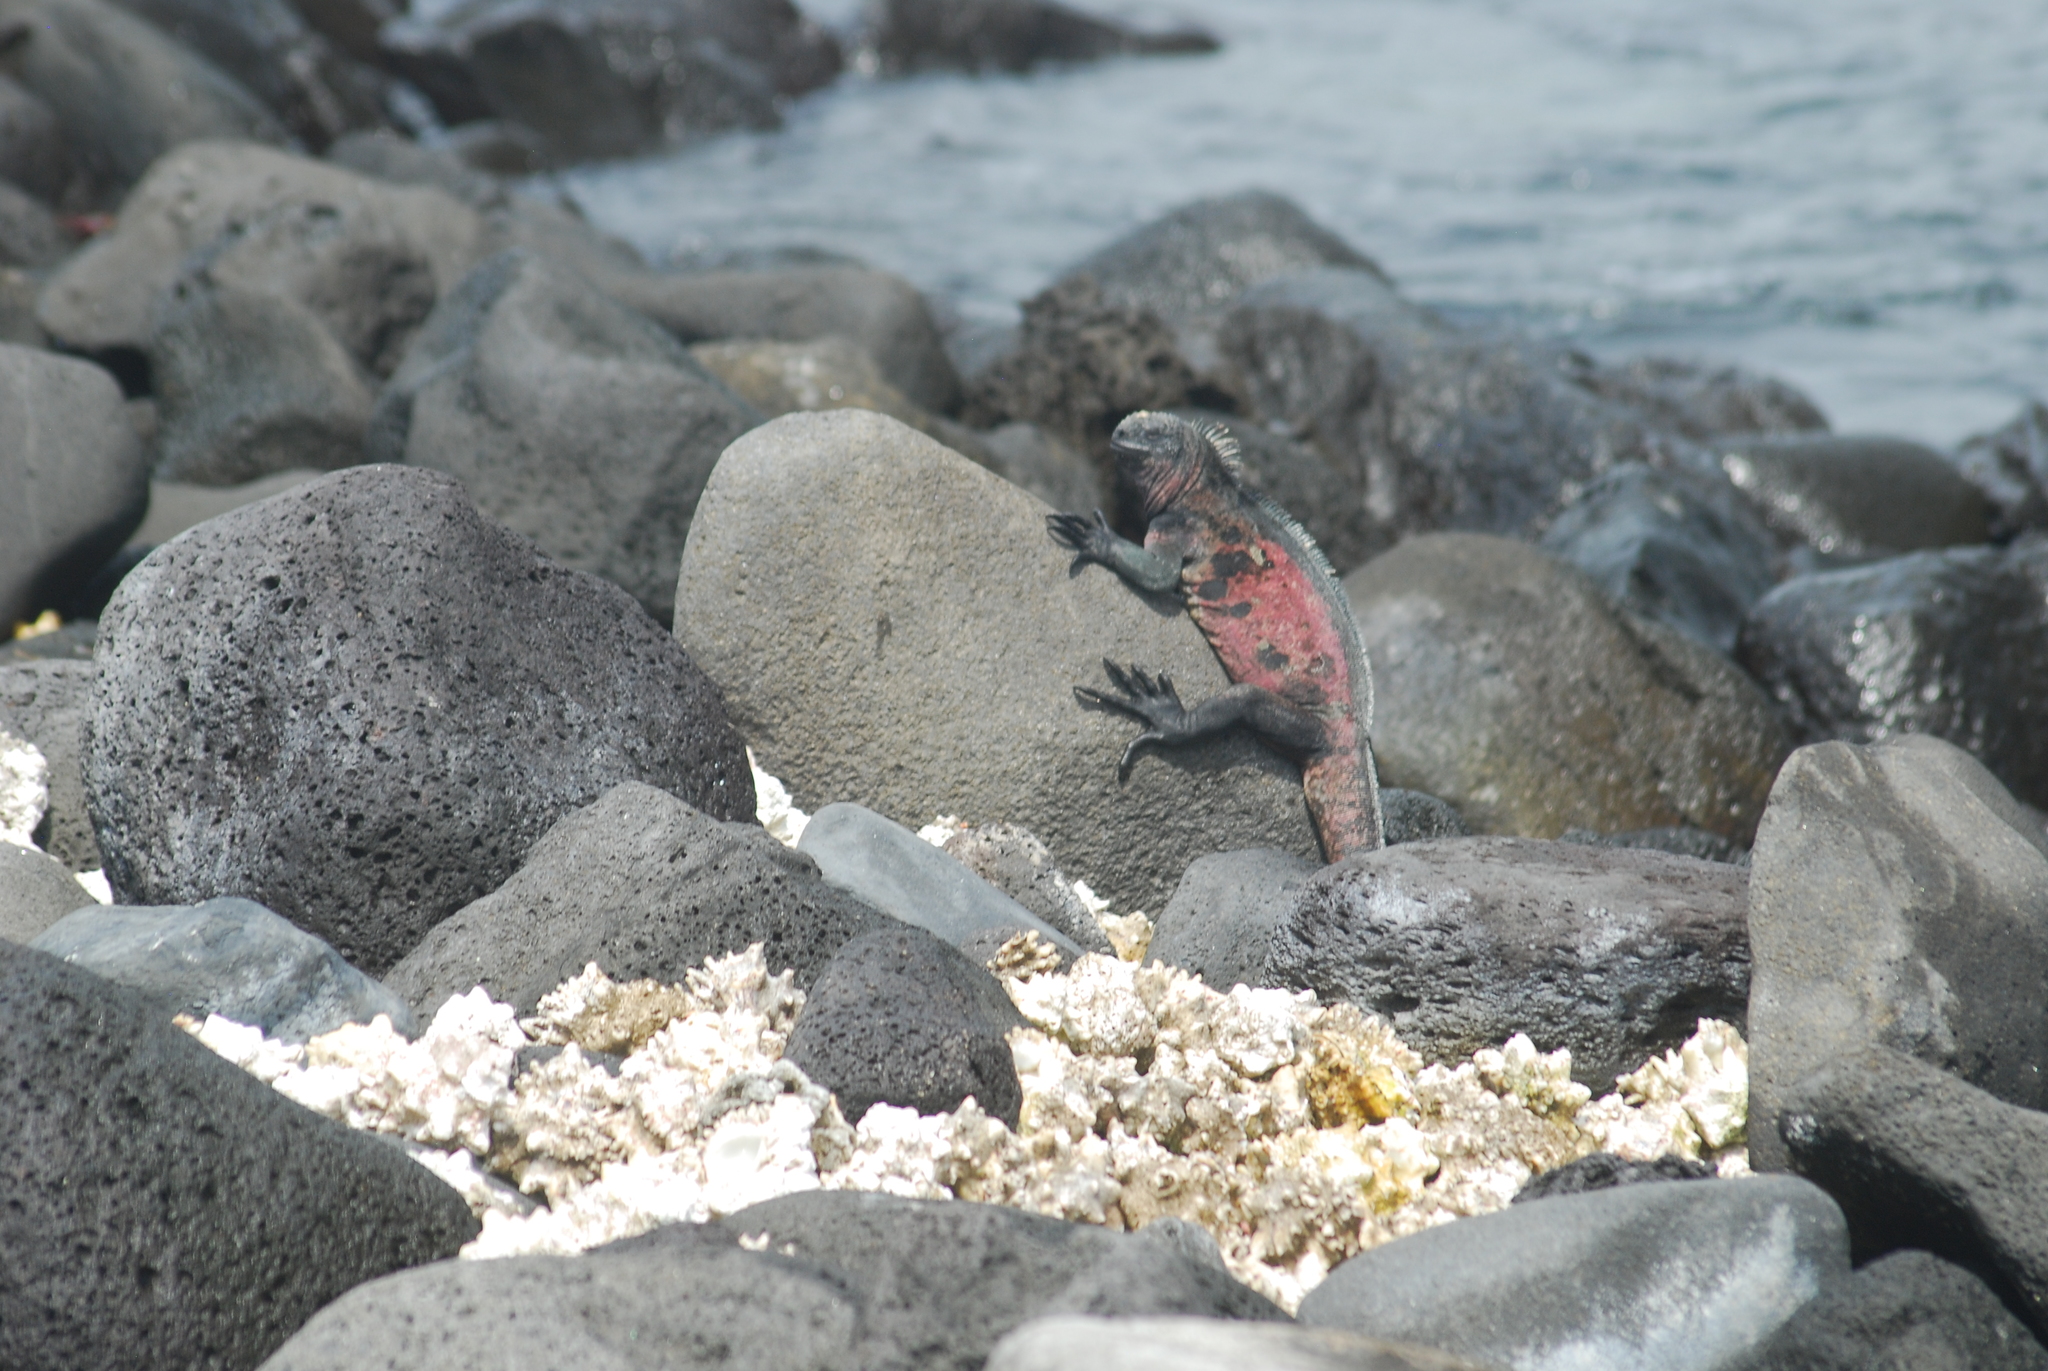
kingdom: Animalia
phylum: Chordata
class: Squamata
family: Iguanidae
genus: Amblyrhynchus
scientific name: Amblyrhynchus cristatus
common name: Marine iguana
